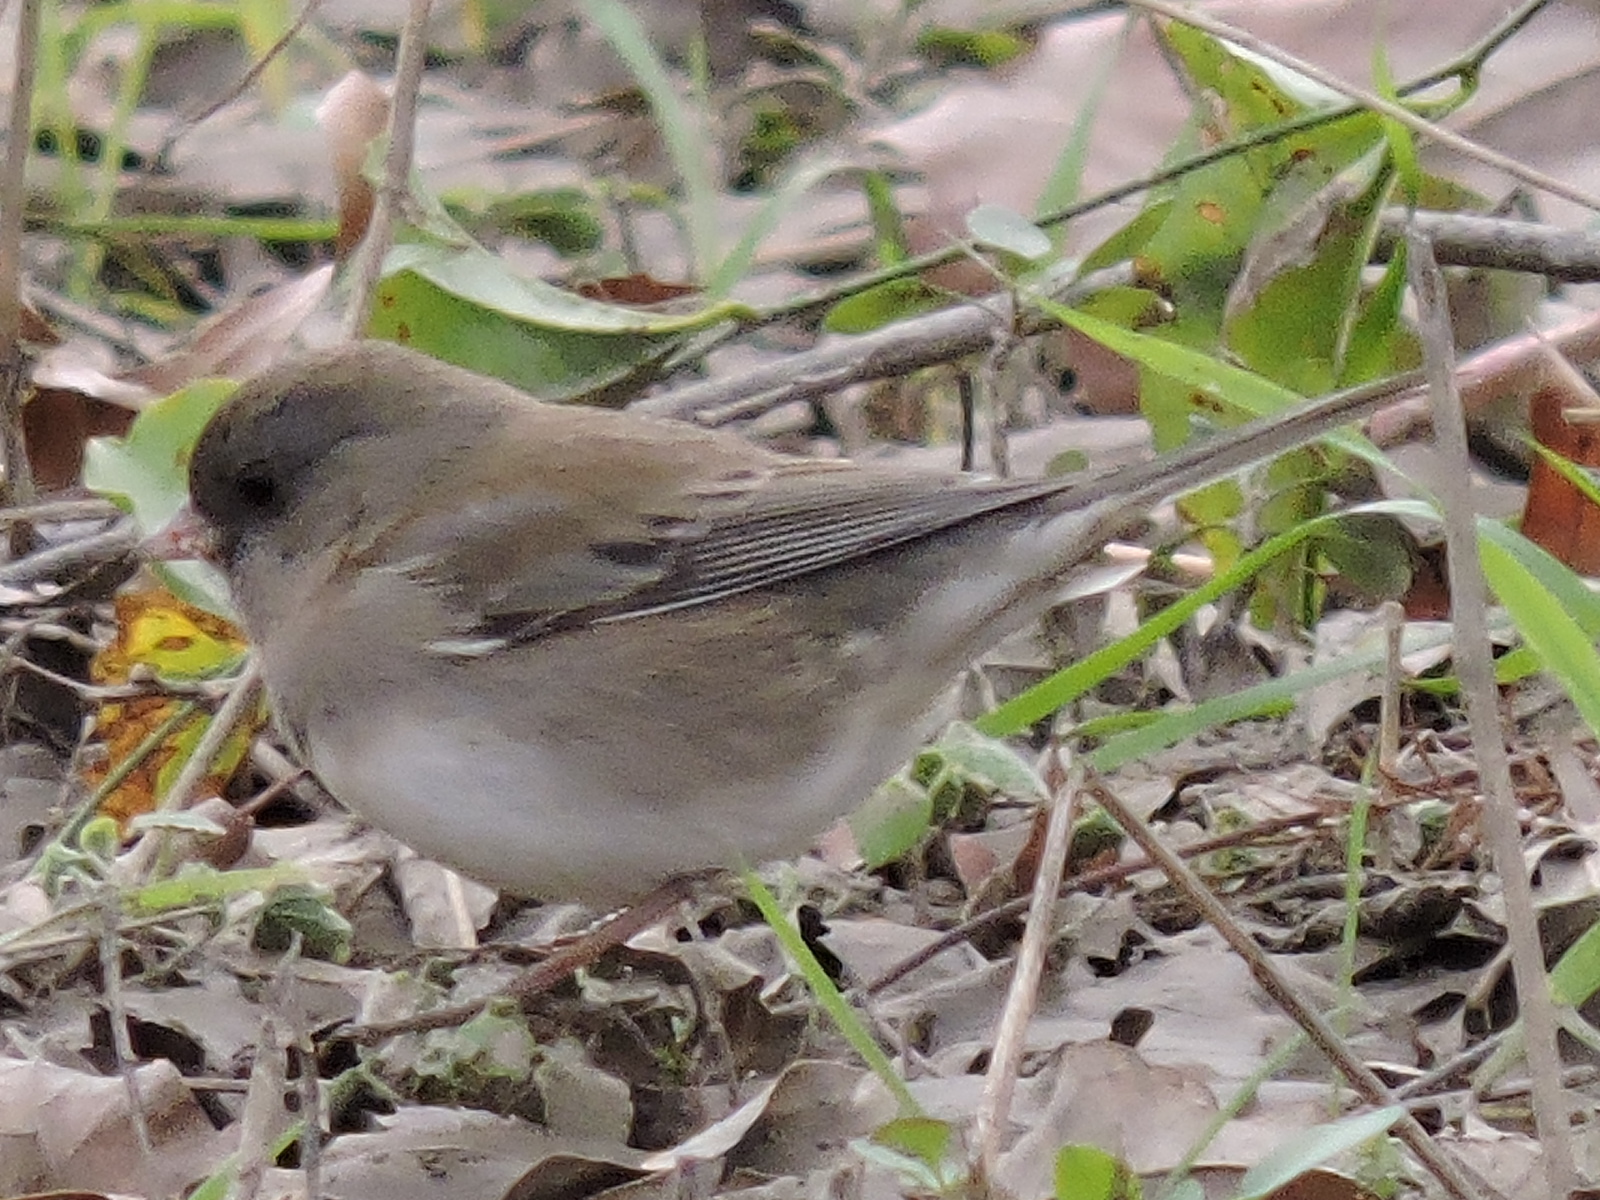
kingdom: Animalia
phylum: Chordata
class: Aves
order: Passeriformes
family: Passerellidae
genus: Junco
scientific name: Junco hyemalis
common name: Dark-eyed junco
